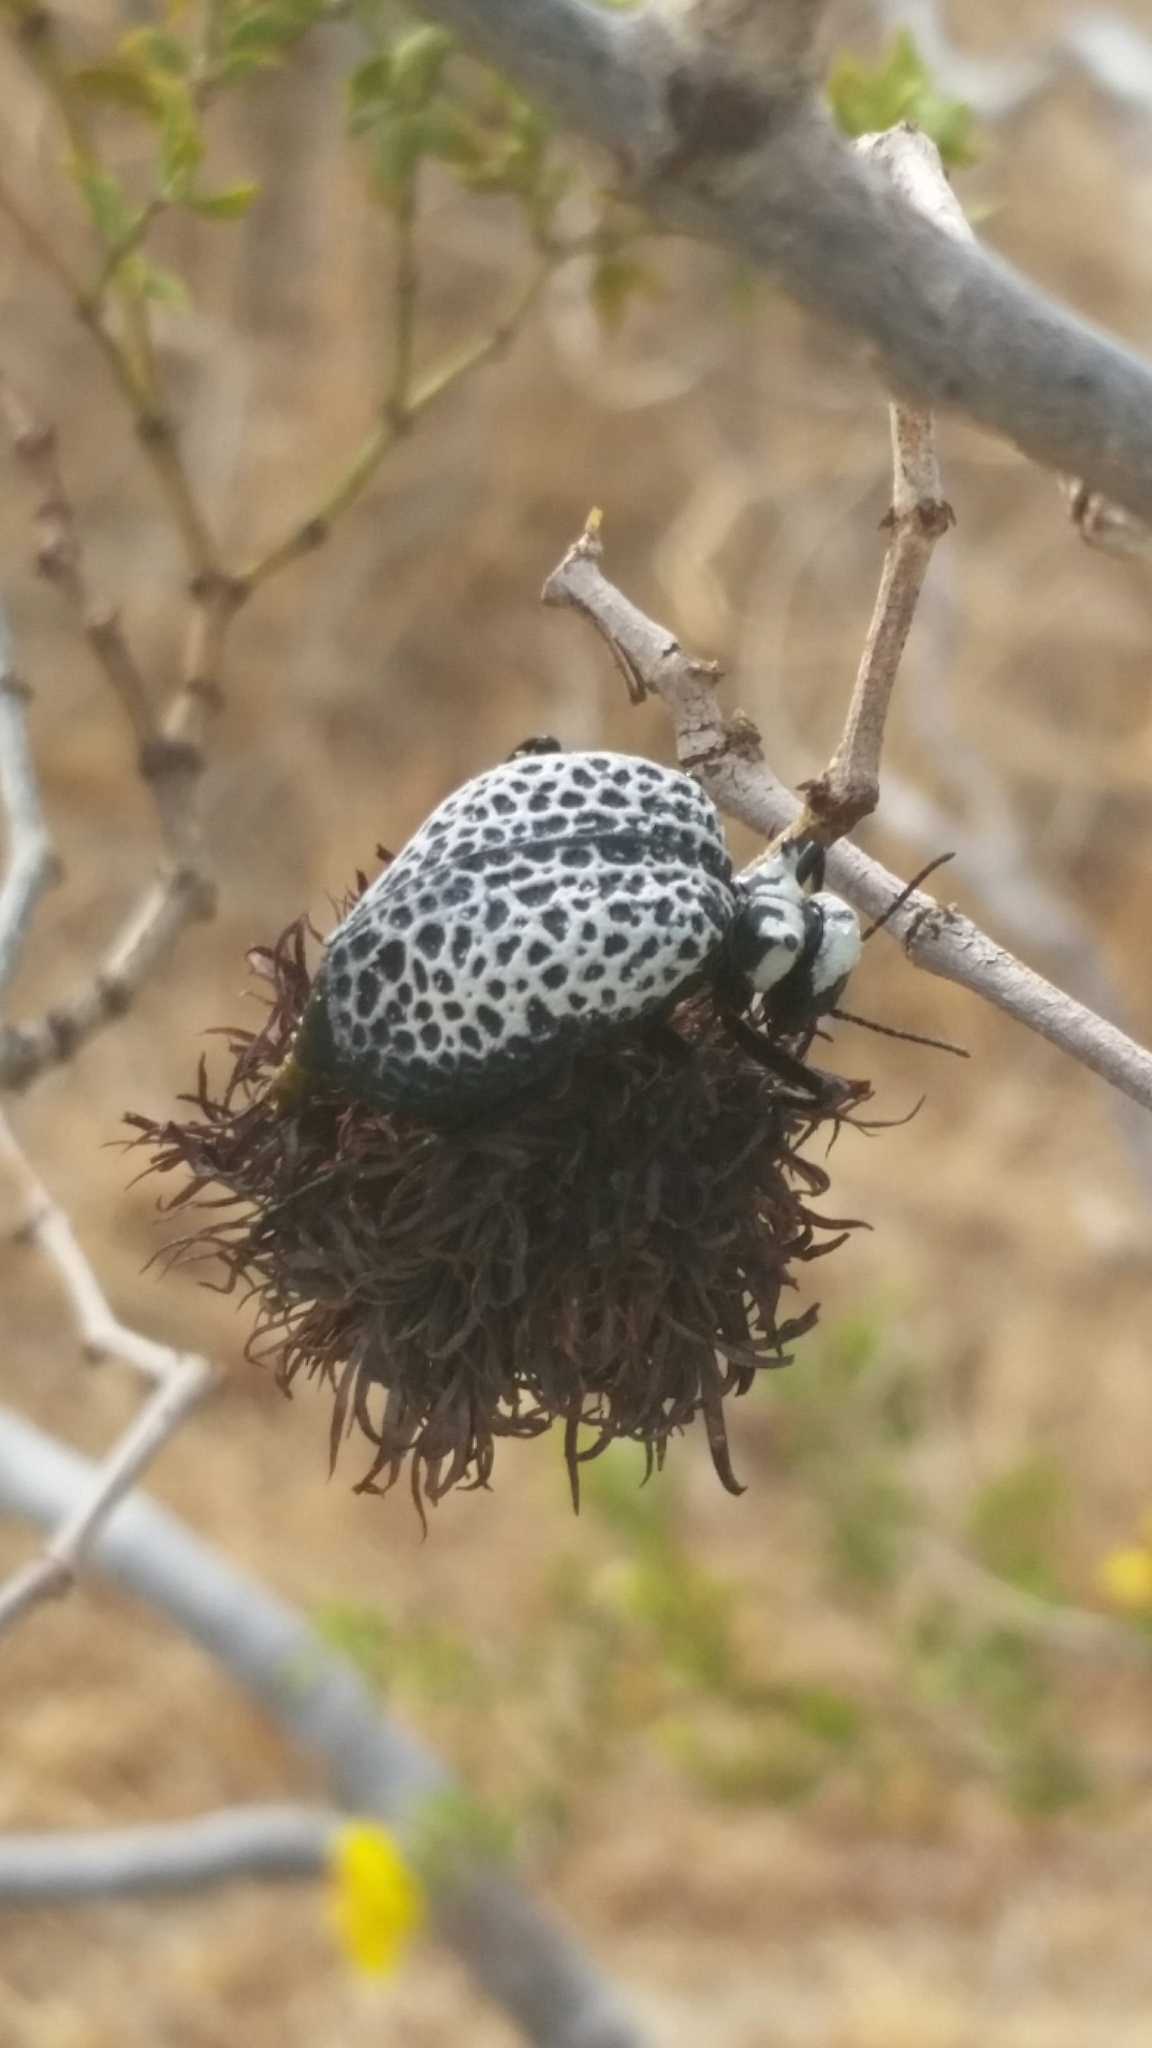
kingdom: Animalia
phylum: Arthropoda
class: Insecta
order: Coleoptera
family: Meloidae
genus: Cysteodemus
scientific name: Cysteodemus armatus
